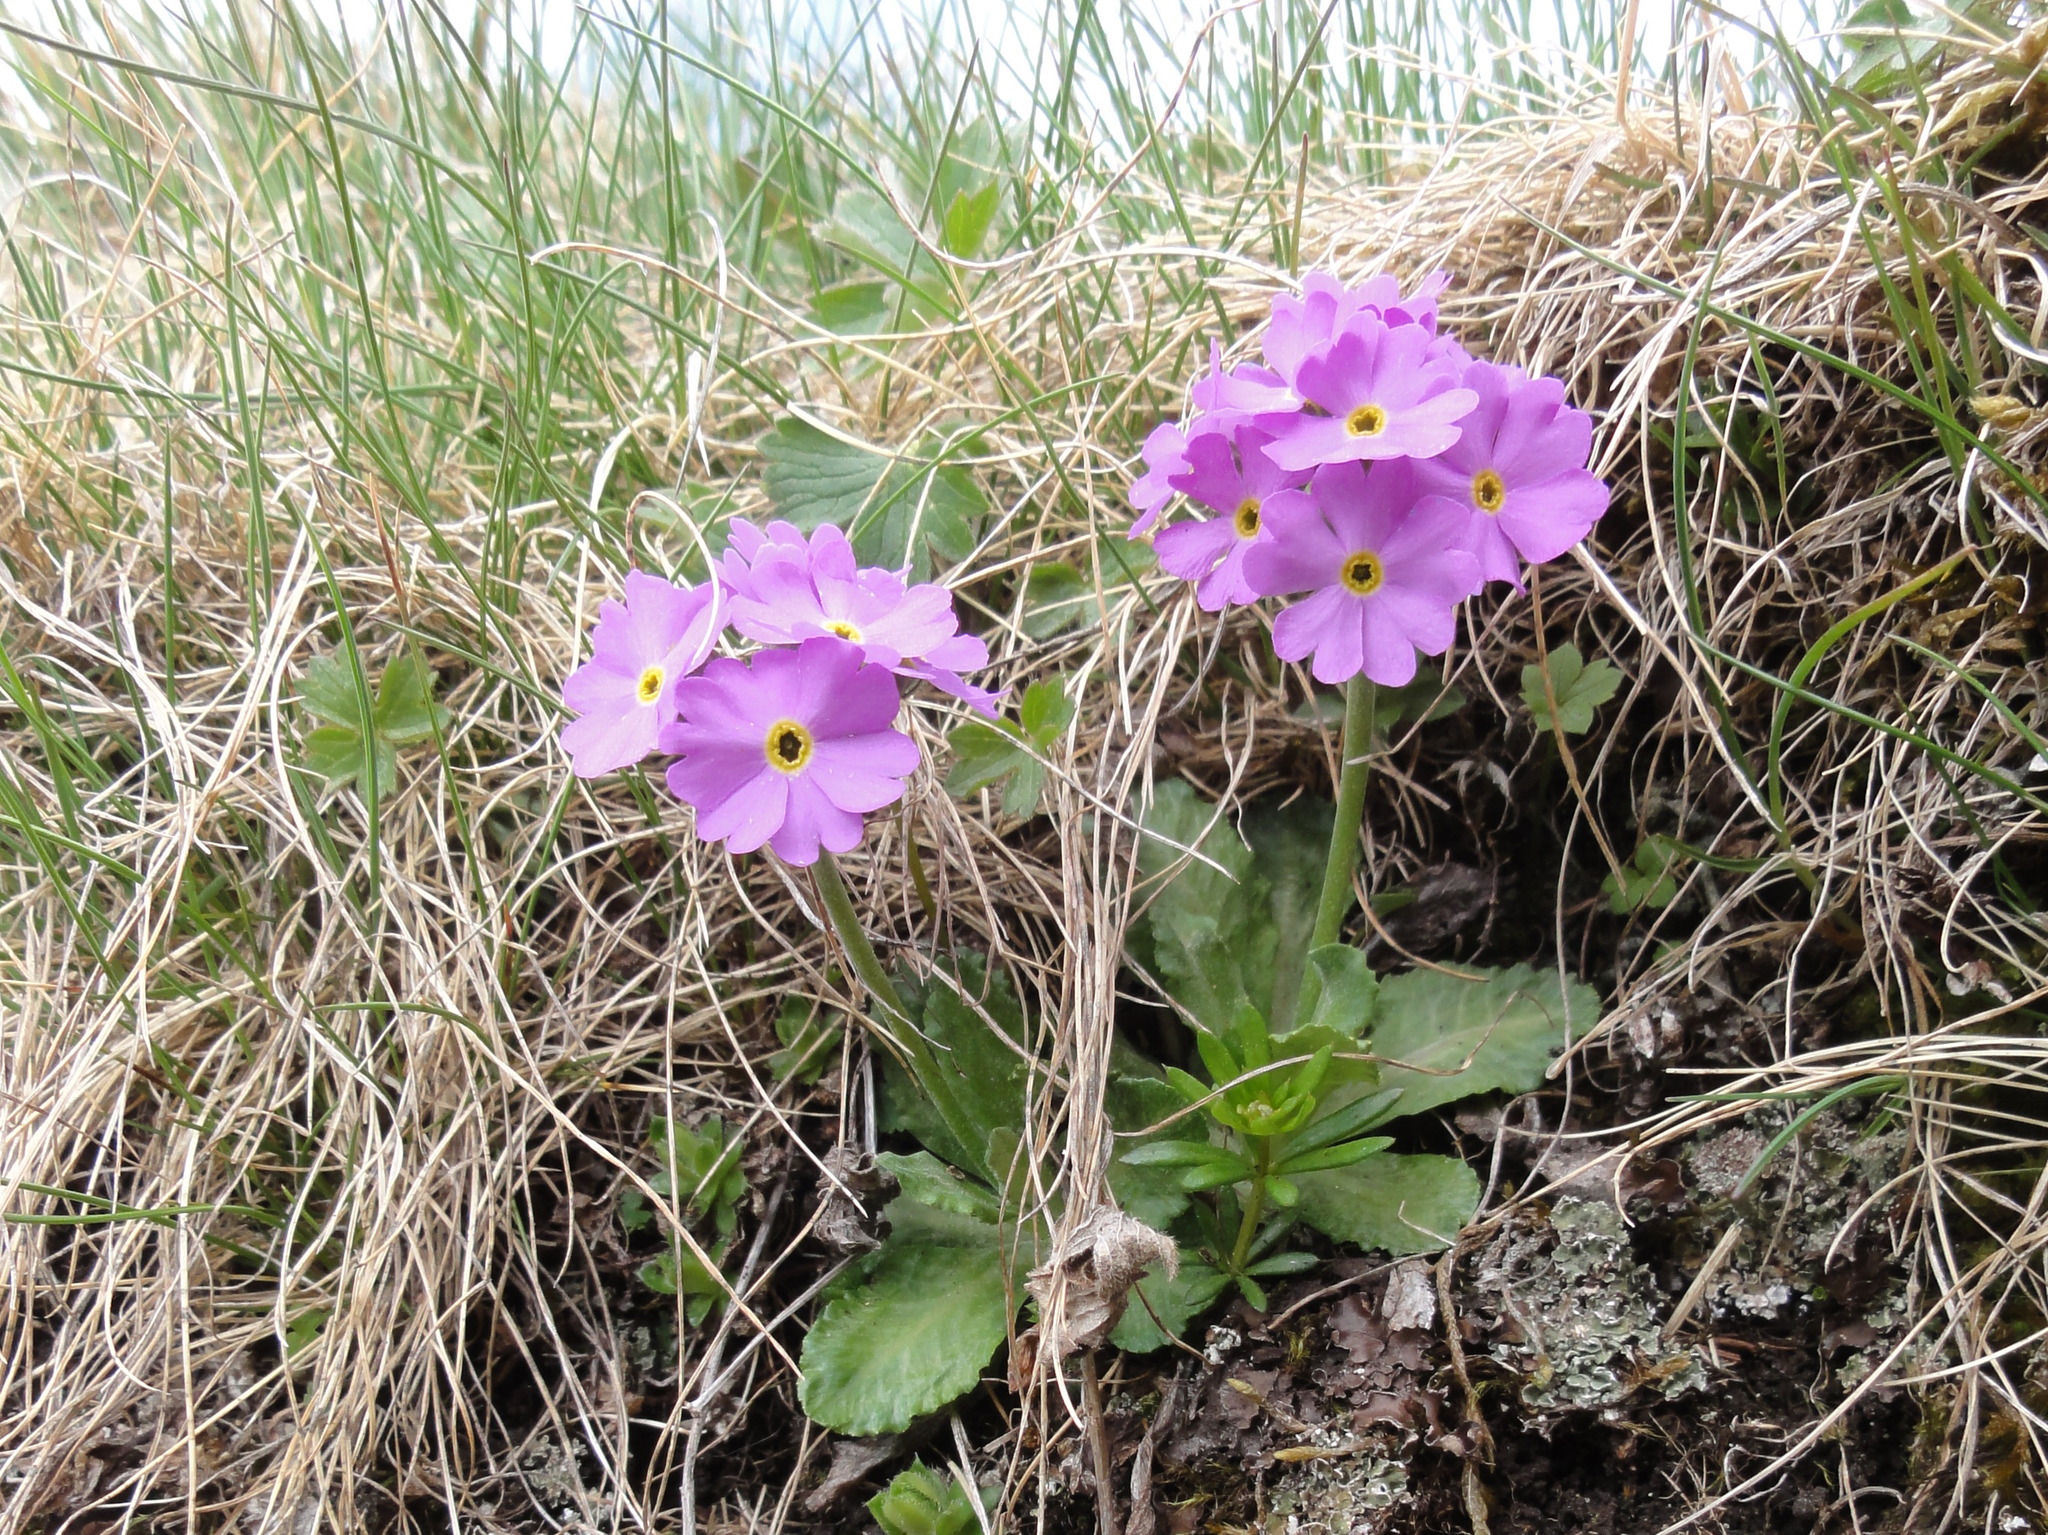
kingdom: Plantae
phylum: Tracheophyta
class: Magnoliopsida
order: Ericales
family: Primulaceae
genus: Primula
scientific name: Primula farinosa
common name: Bird's-eye primrose
